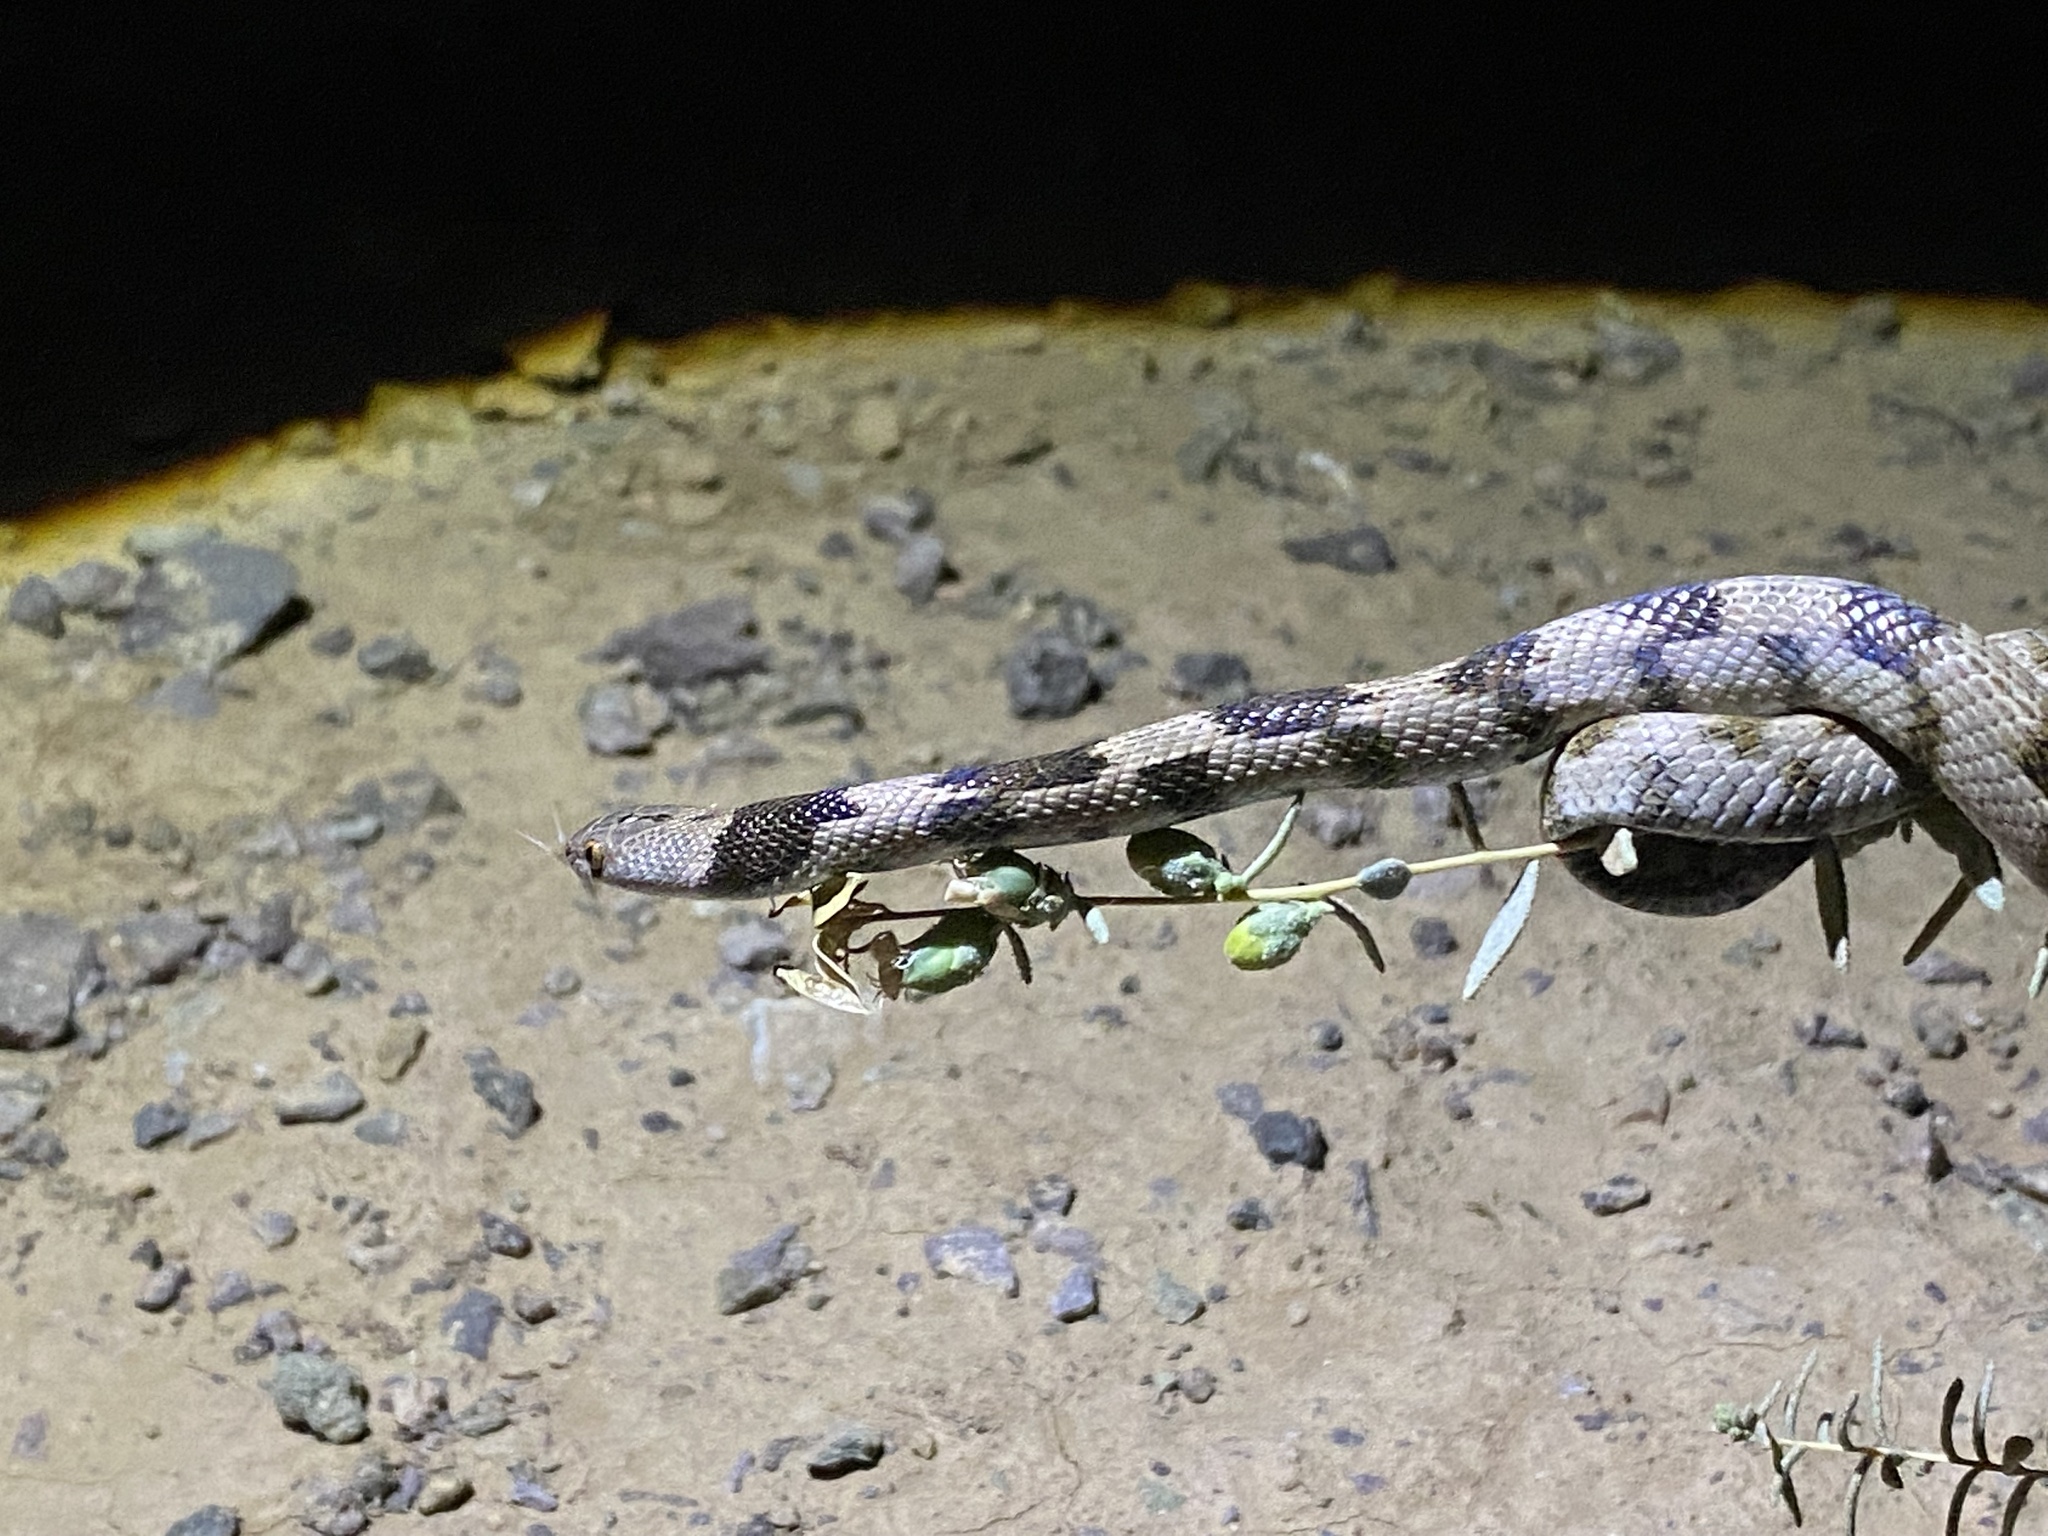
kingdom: Animalia
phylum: Chordata
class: Squamata
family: Colubridae
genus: Telescopus
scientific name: Telescopus fallax
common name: Cat snake
